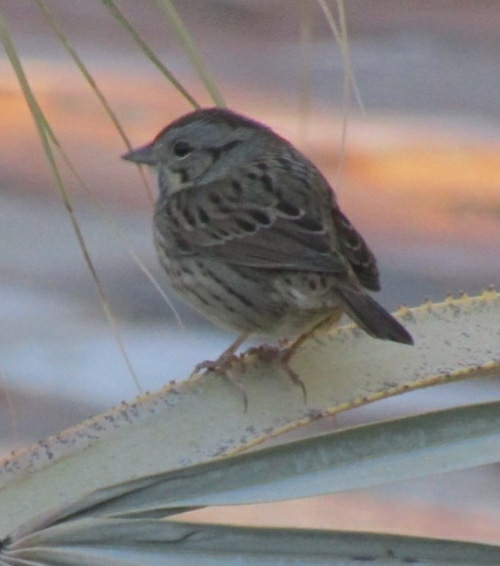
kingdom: Animalia
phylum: Chordata
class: Aves
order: Passeriformes
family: Passerellidae
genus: Melospiza
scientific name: Melospiza lincolnii
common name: Lincoln's sparrow
